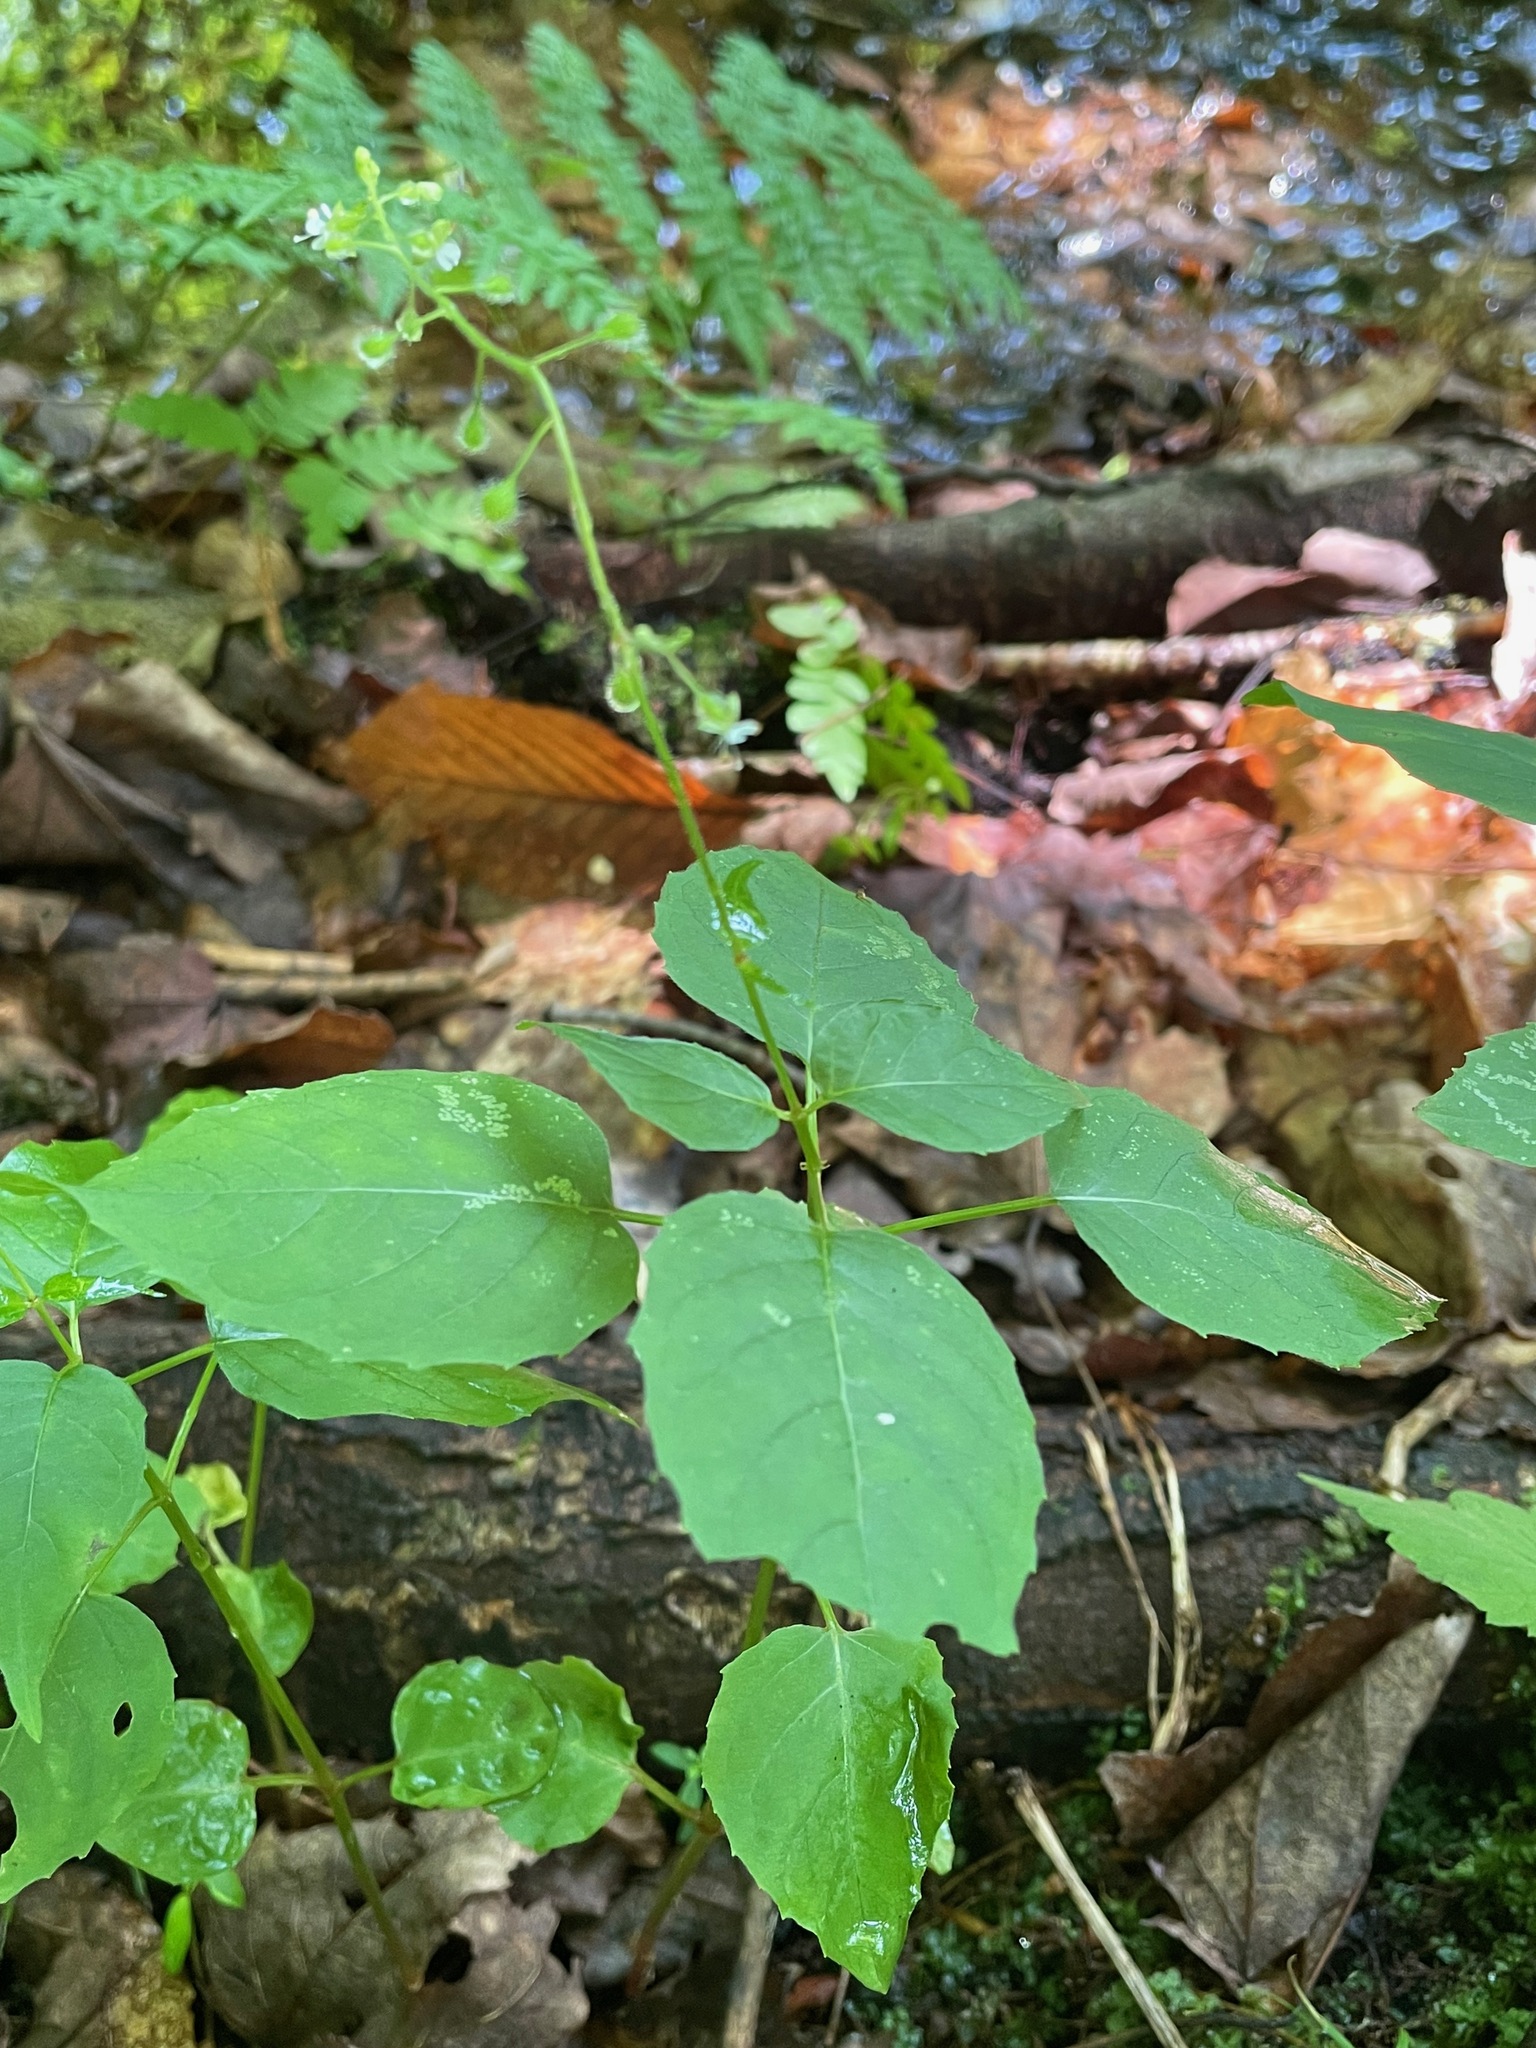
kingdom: Plantae
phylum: Tracheophyta
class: Magnoliopsida
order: Myrtales
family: Onagraceae
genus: Circaea
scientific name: Circaea alpina
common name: Alpine enchanter's-nightshade
